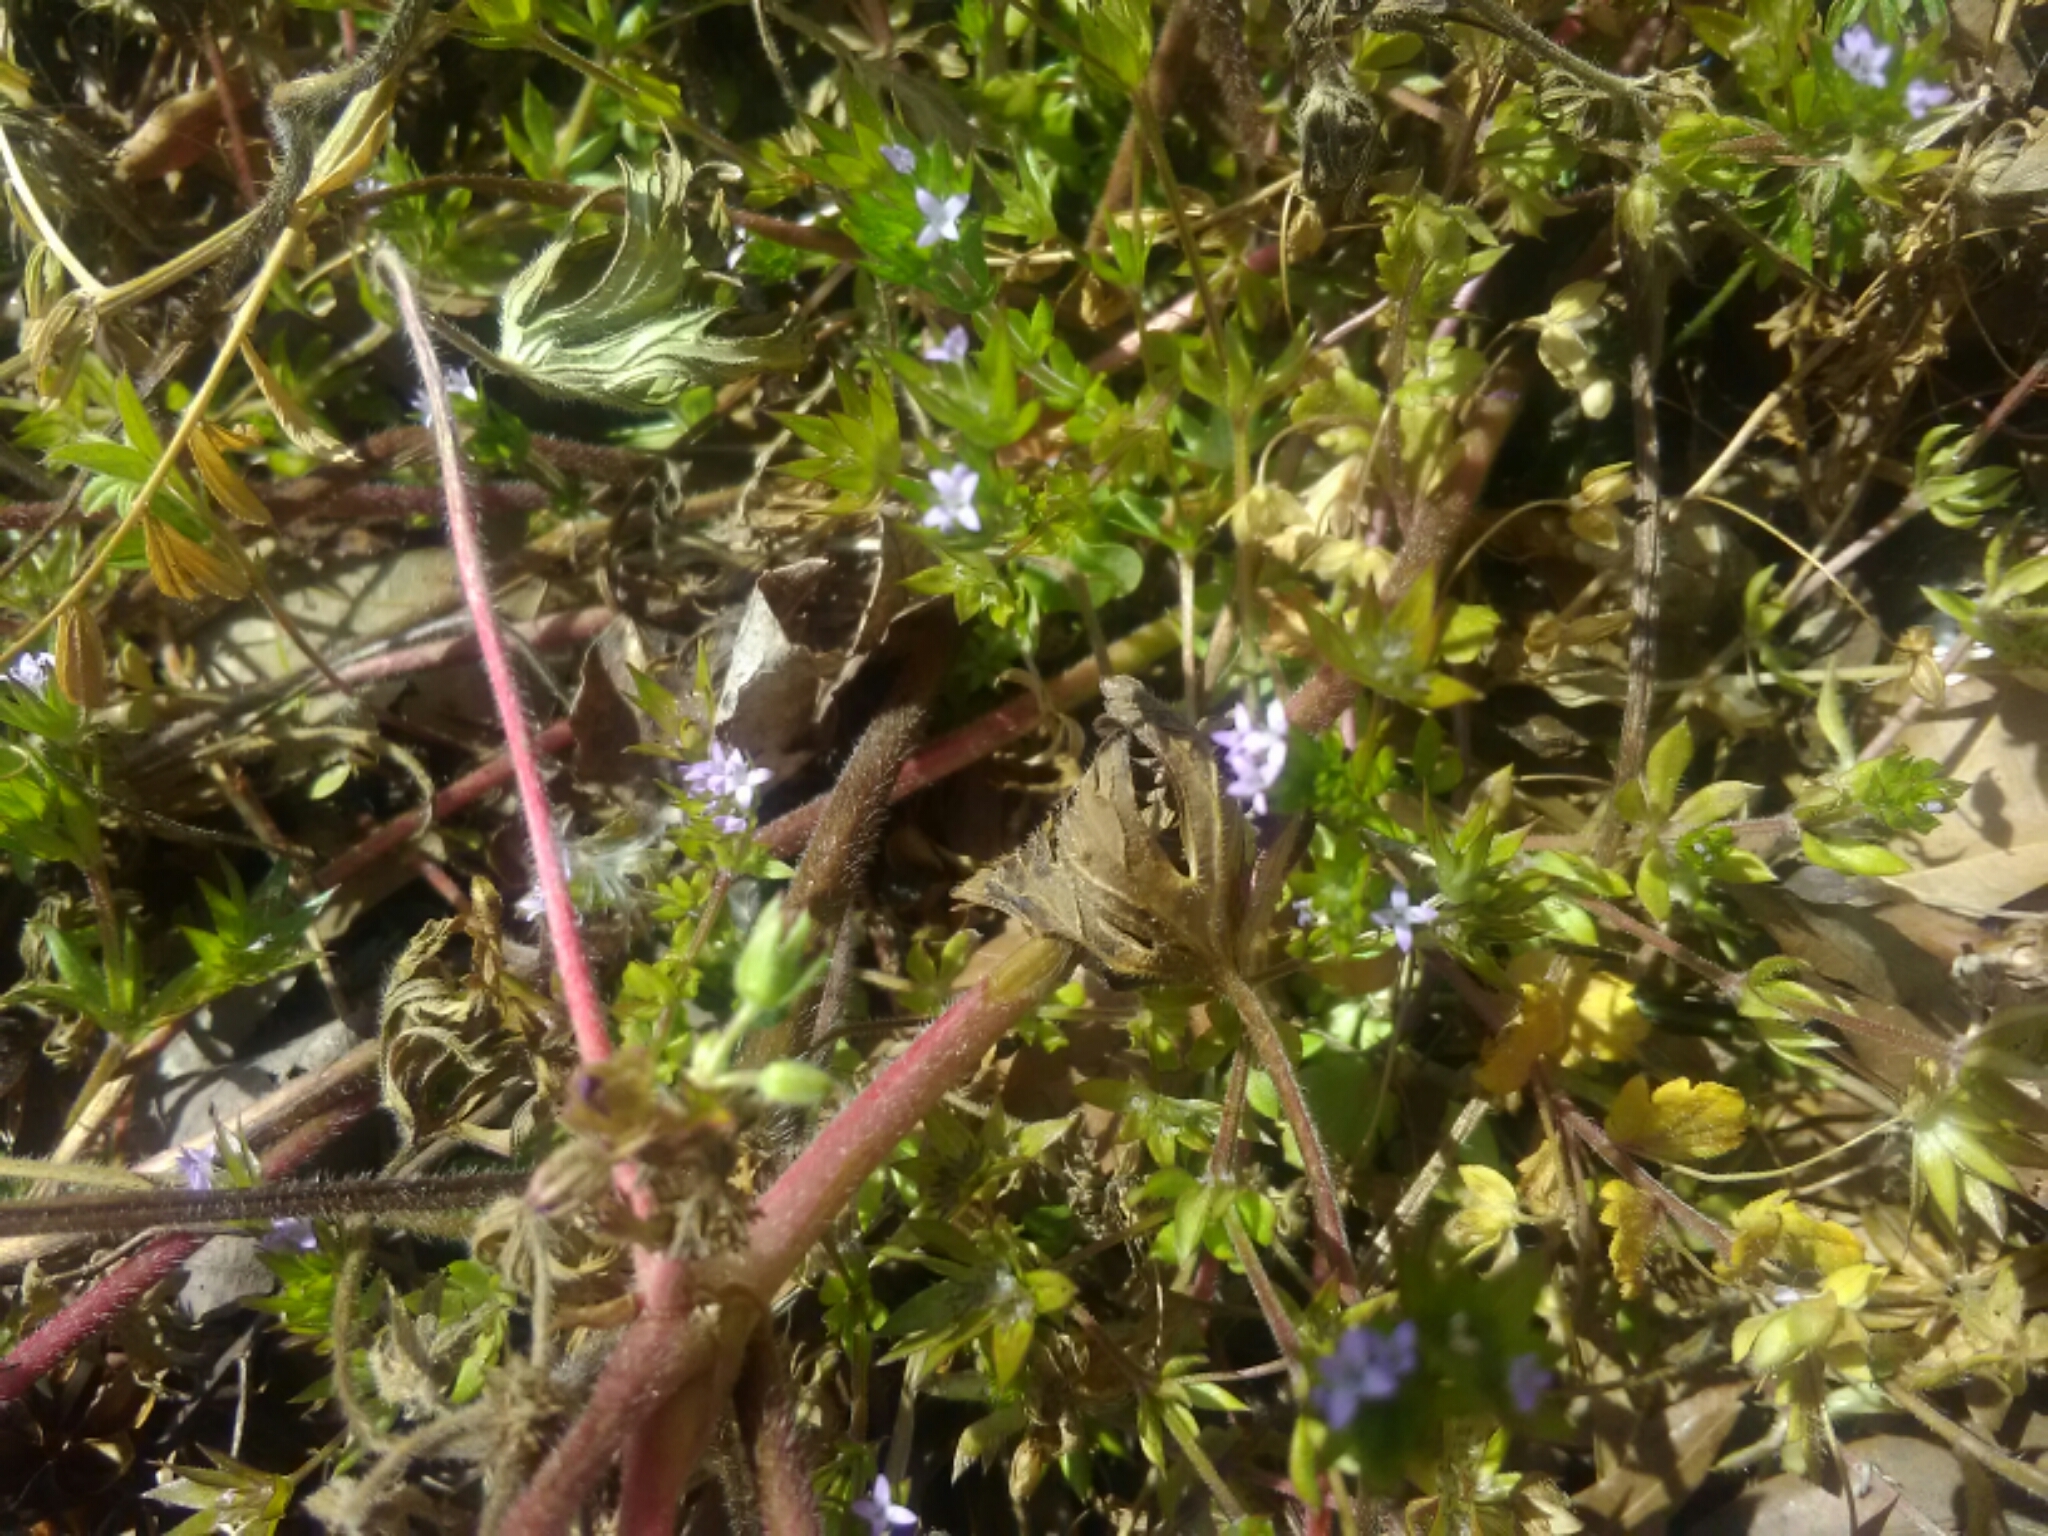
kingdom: Plantae
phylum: Tracheophyta
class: Magnoliopsida
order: Gentianales
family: Rubiaceae
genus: Sherardia
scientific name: Sherardia arvensis
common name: Field madder
